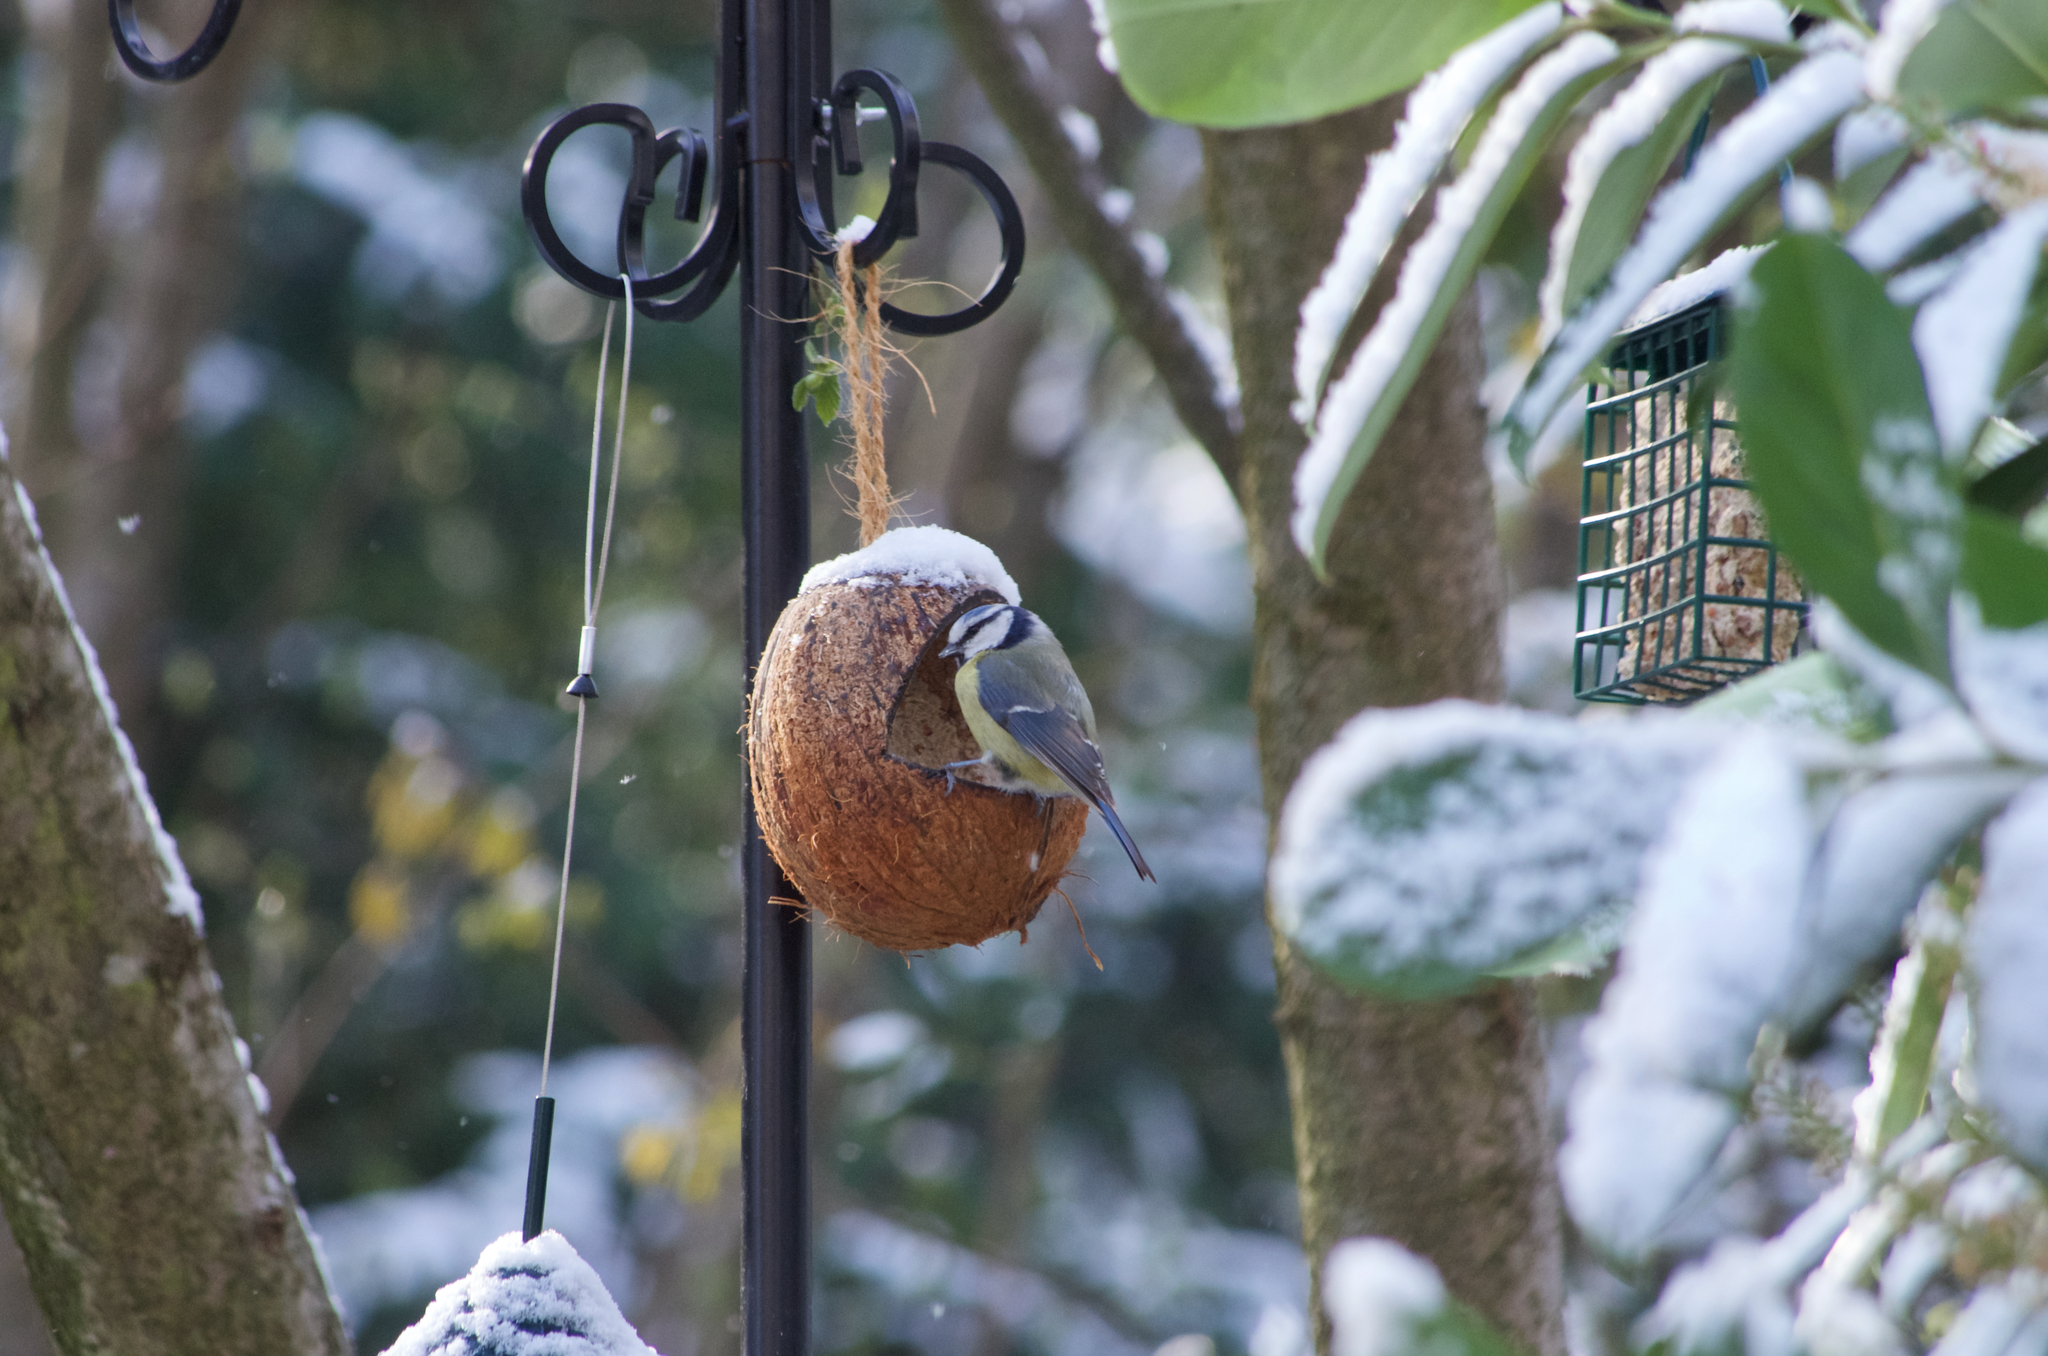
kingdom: Animalia
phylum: Chordata
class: Aves
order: Passeriformes
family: Paridae
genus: Cyanistes
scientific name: Cyanistes caeruleus
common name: Eurasian blue tit
